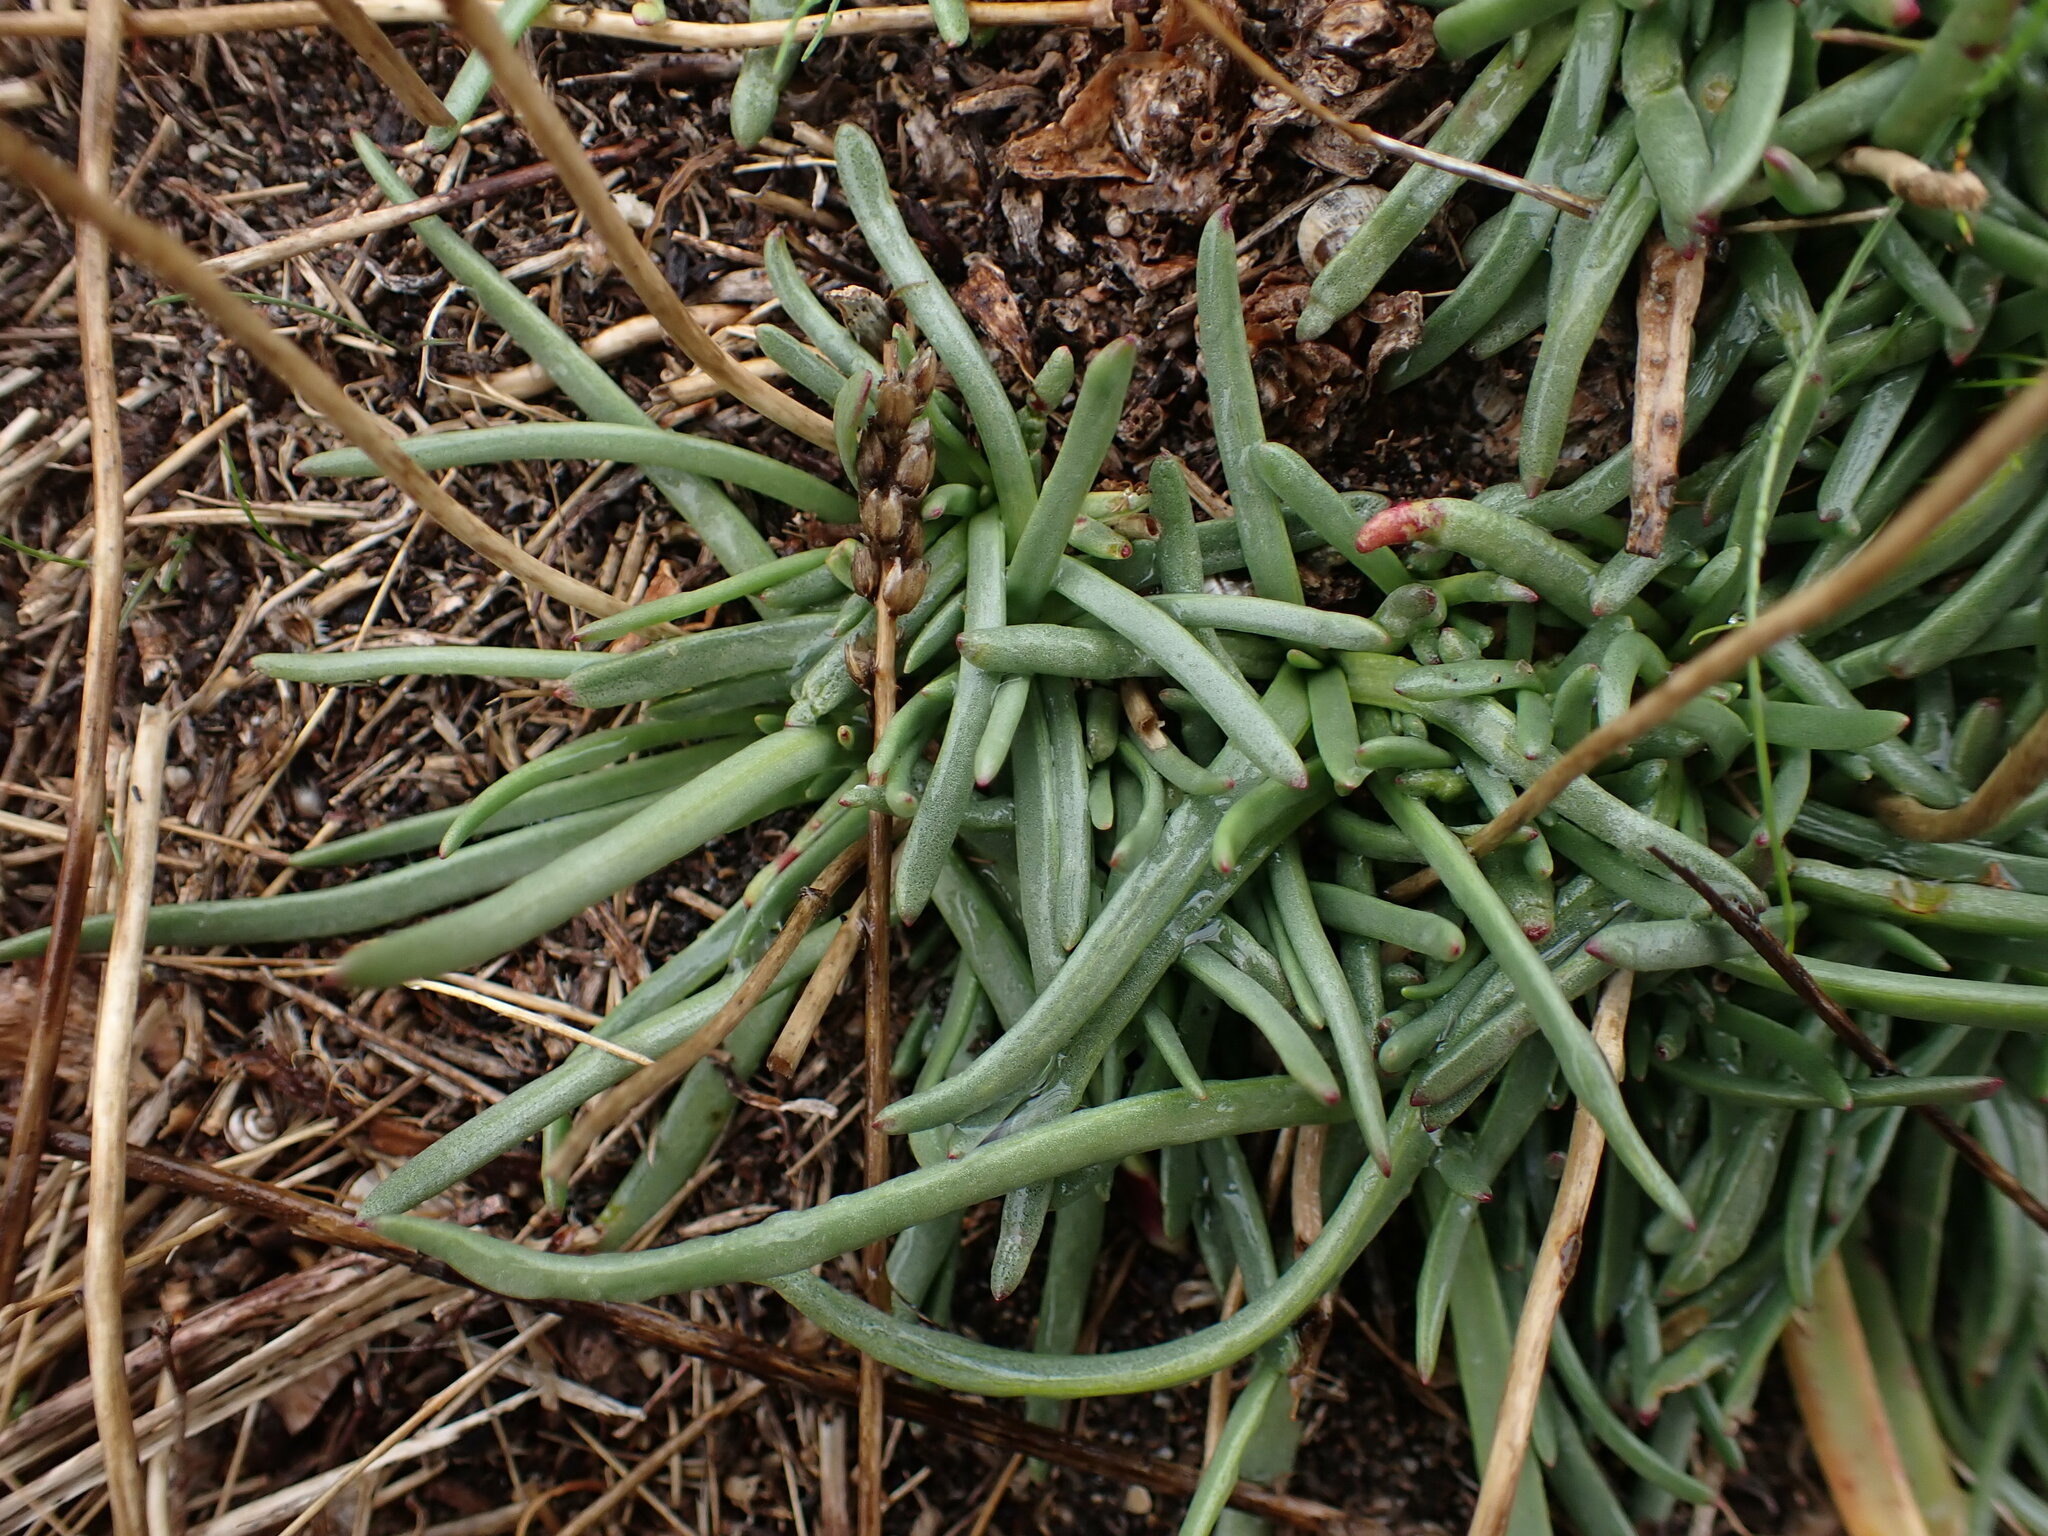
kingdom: Plantae
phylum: Tracheophyta
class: Magnoliopsida
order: Lamiales
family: Plantaginaceae
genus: Plantago
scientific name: Plantago crassifolia
